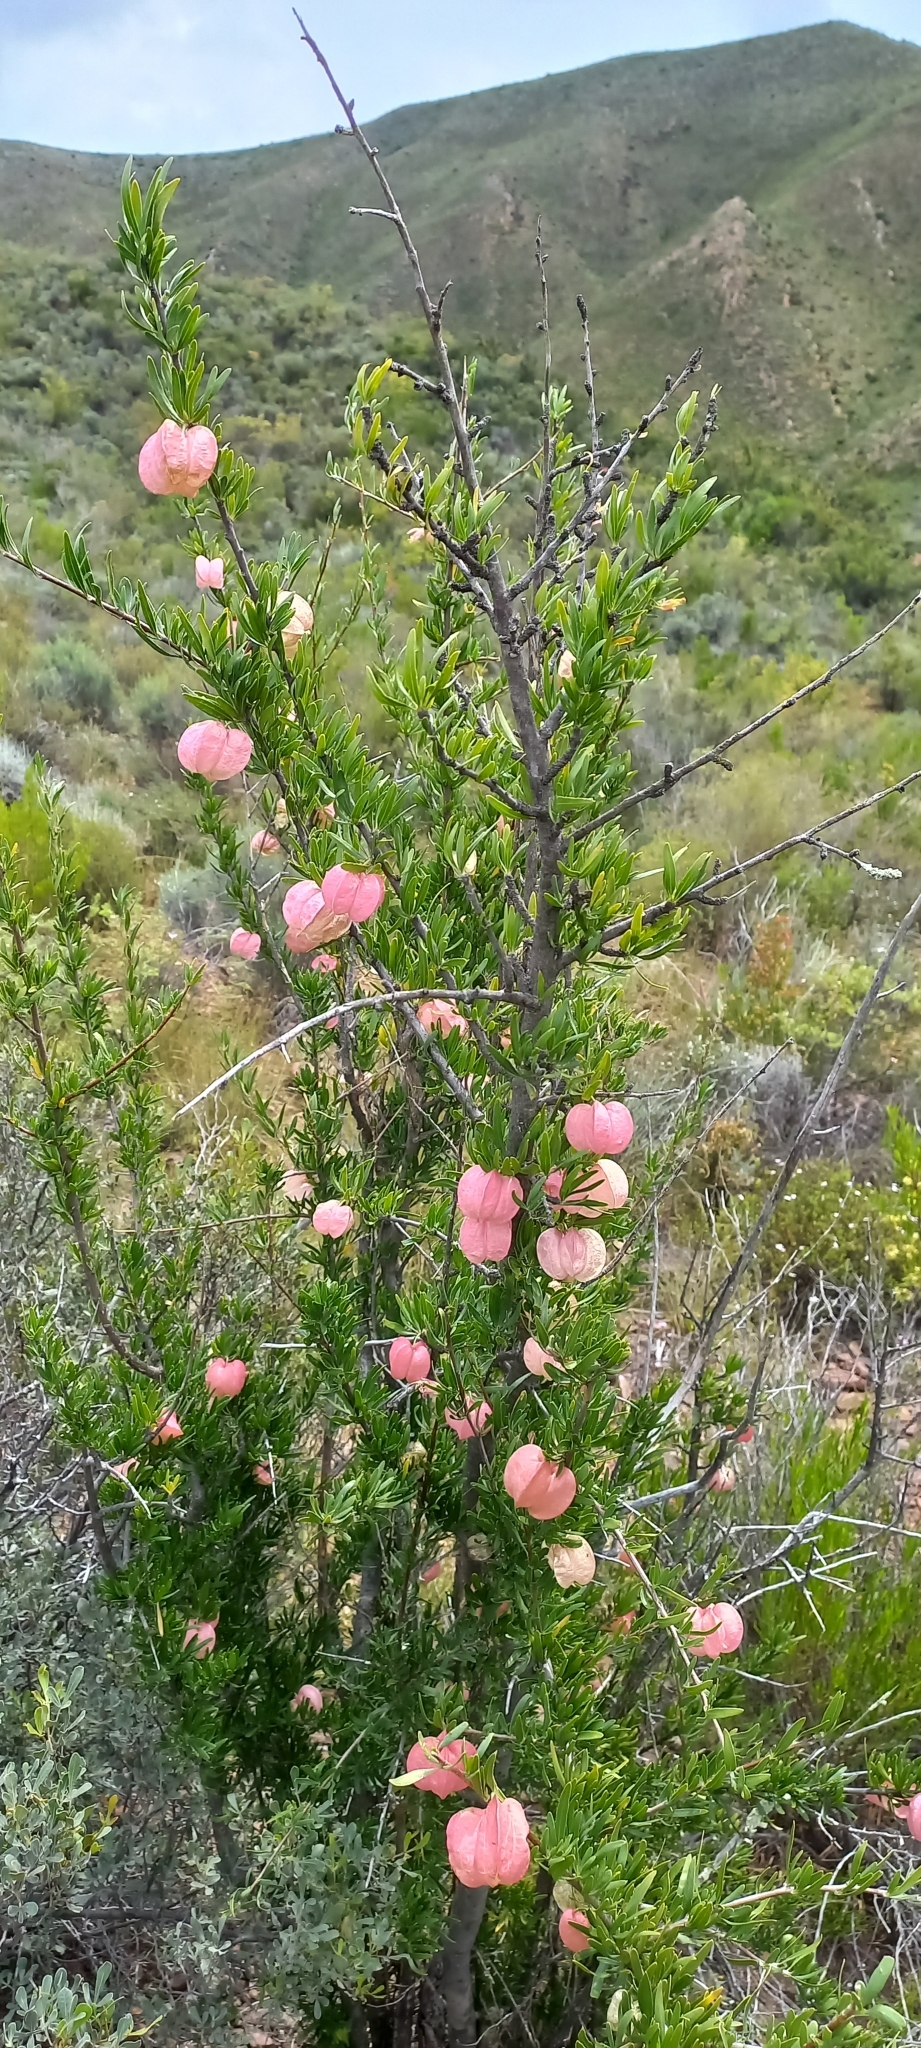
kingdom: Plantae
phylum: Tracheophyta
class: Magnoliopsida
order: Sapindales
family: Meliaceae
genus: Nymania
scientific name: Nymania capensis
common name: Chinese lantern tree
